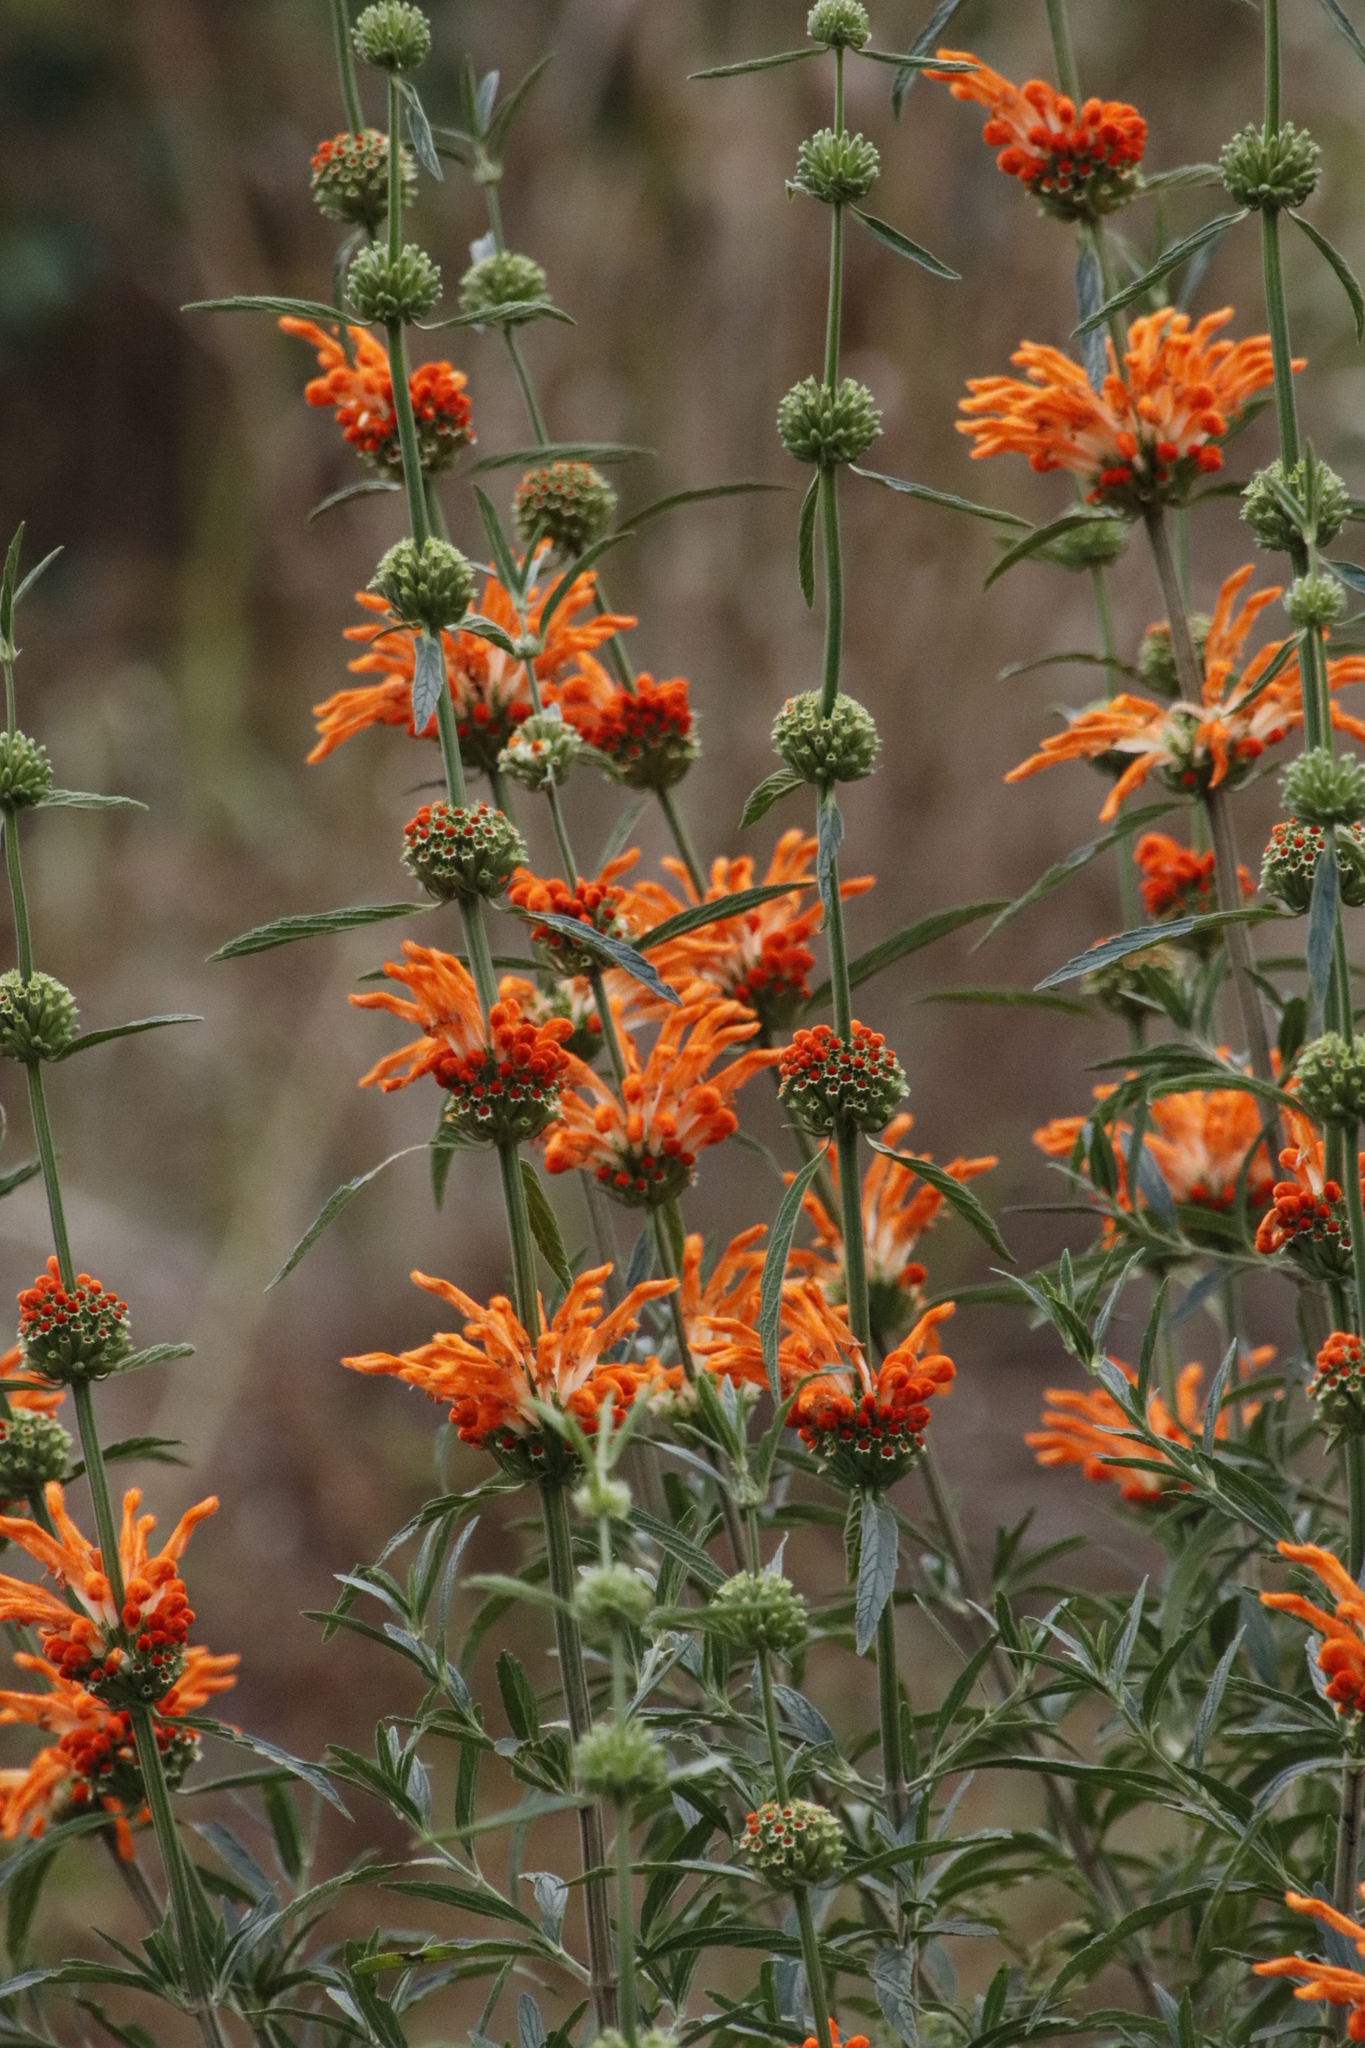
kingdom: Plantae
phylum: Tracheophyta
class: Magnoliopsida
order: Lamiales
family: Lamiaceae
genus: Leonotis
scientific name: Leonotis leonurus
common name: Lion's ear
